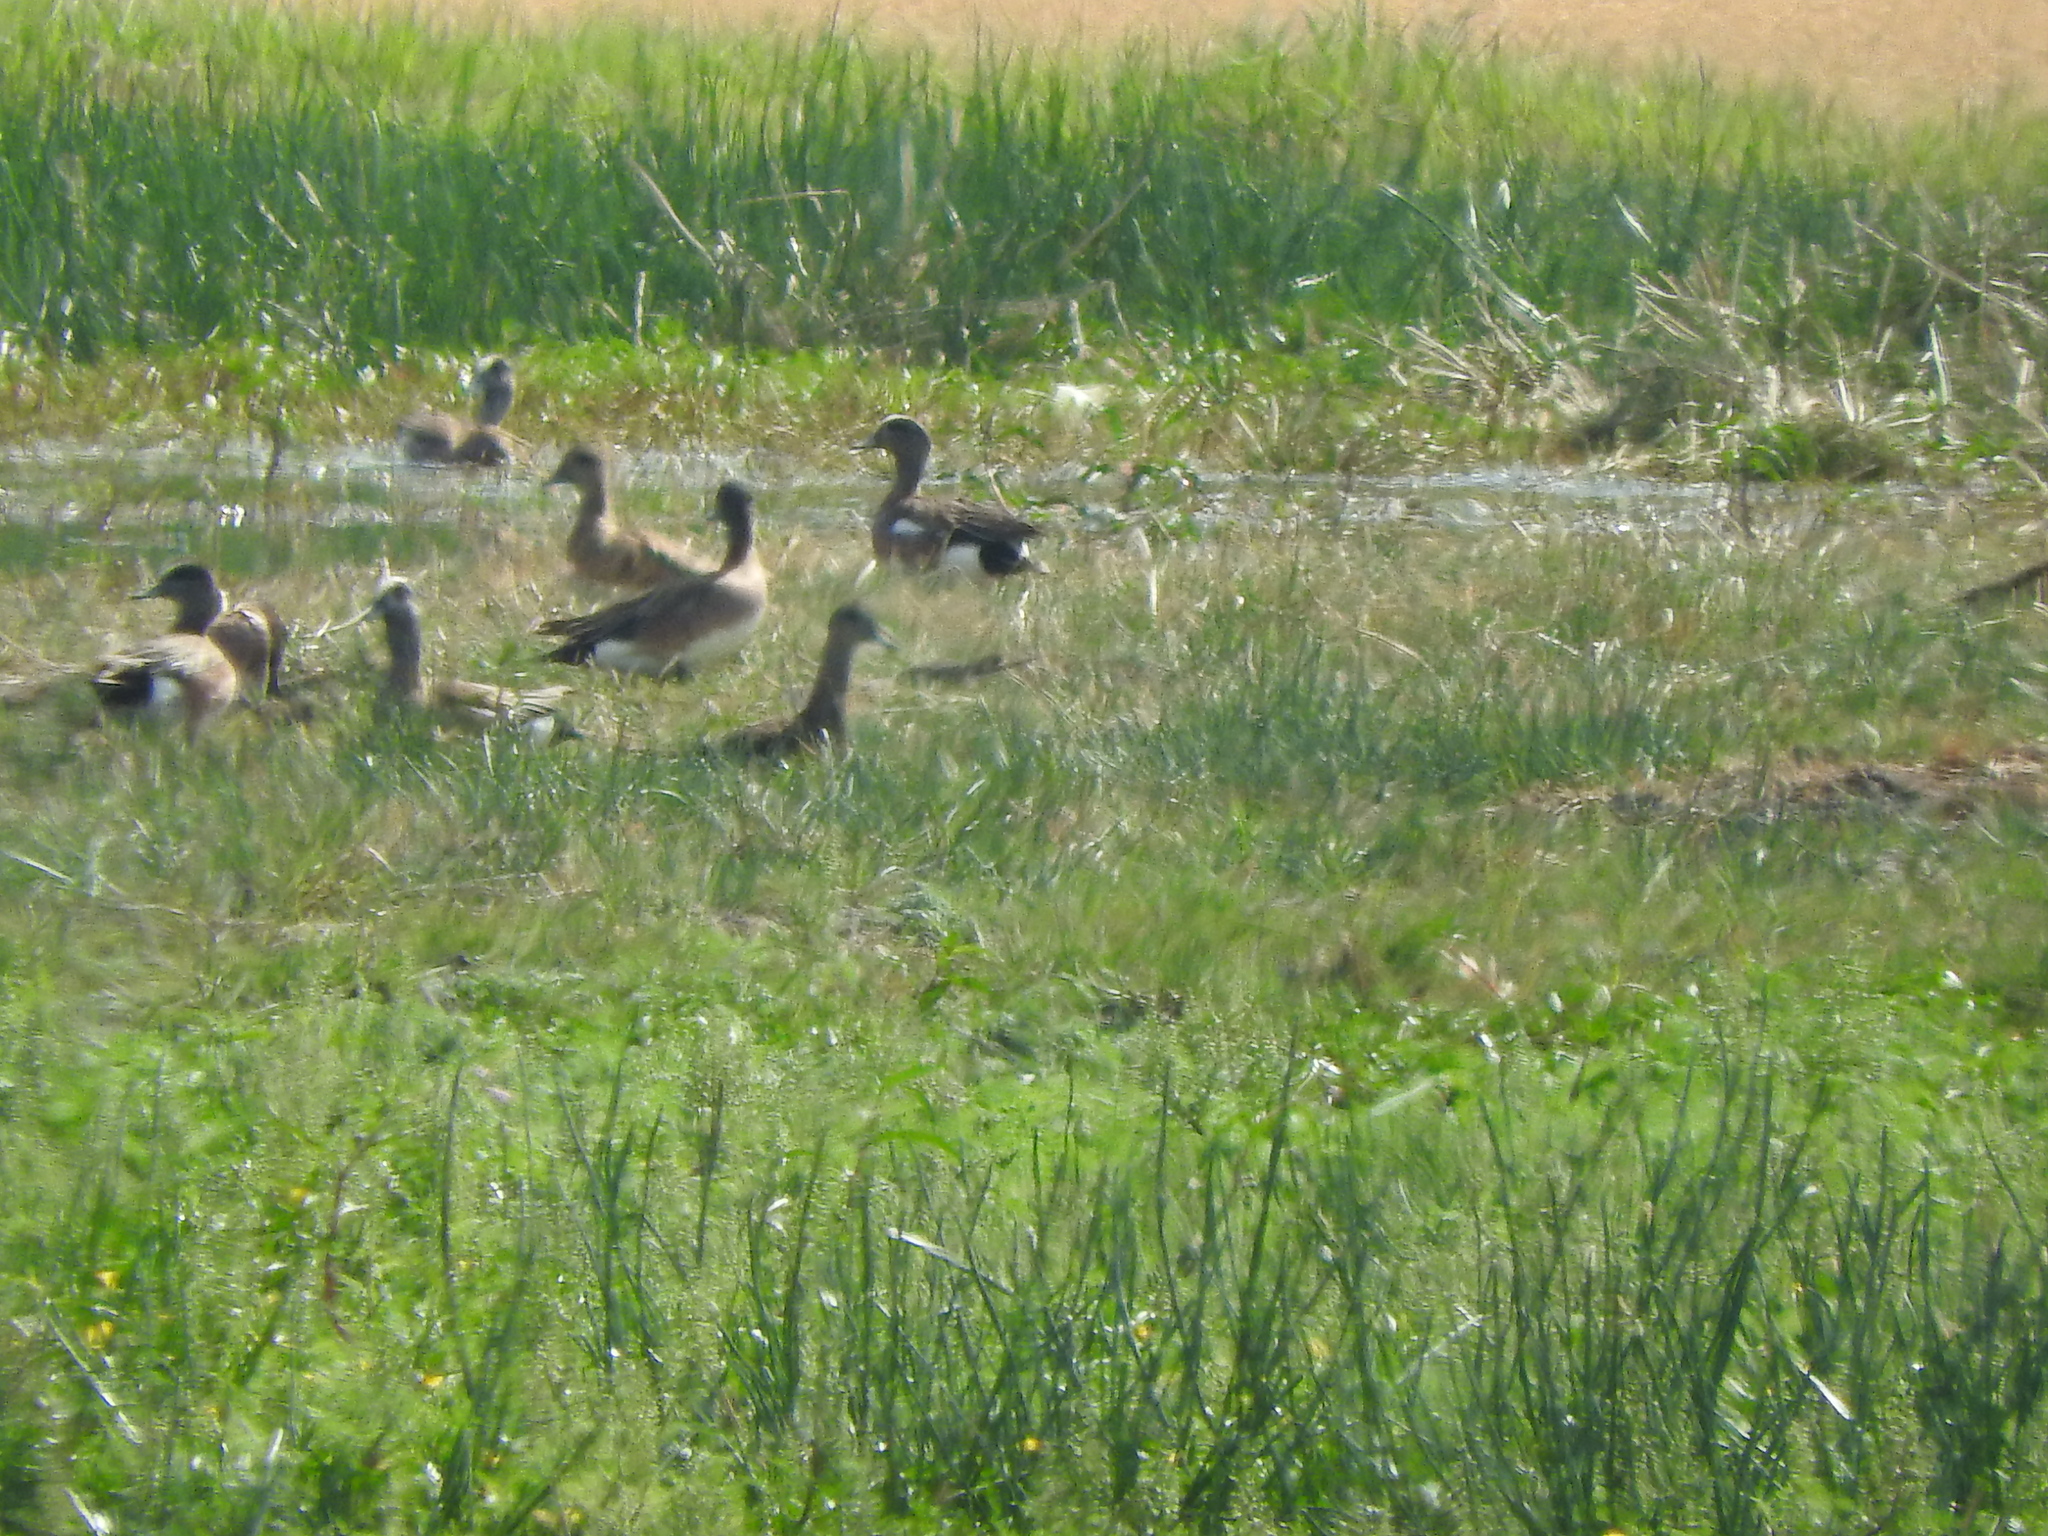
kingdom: Animalia
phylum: Chordata
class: Aves
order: Anseriformes
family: Anatidae
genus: Mareca
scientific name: Mareca strepera
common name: Gadwall
